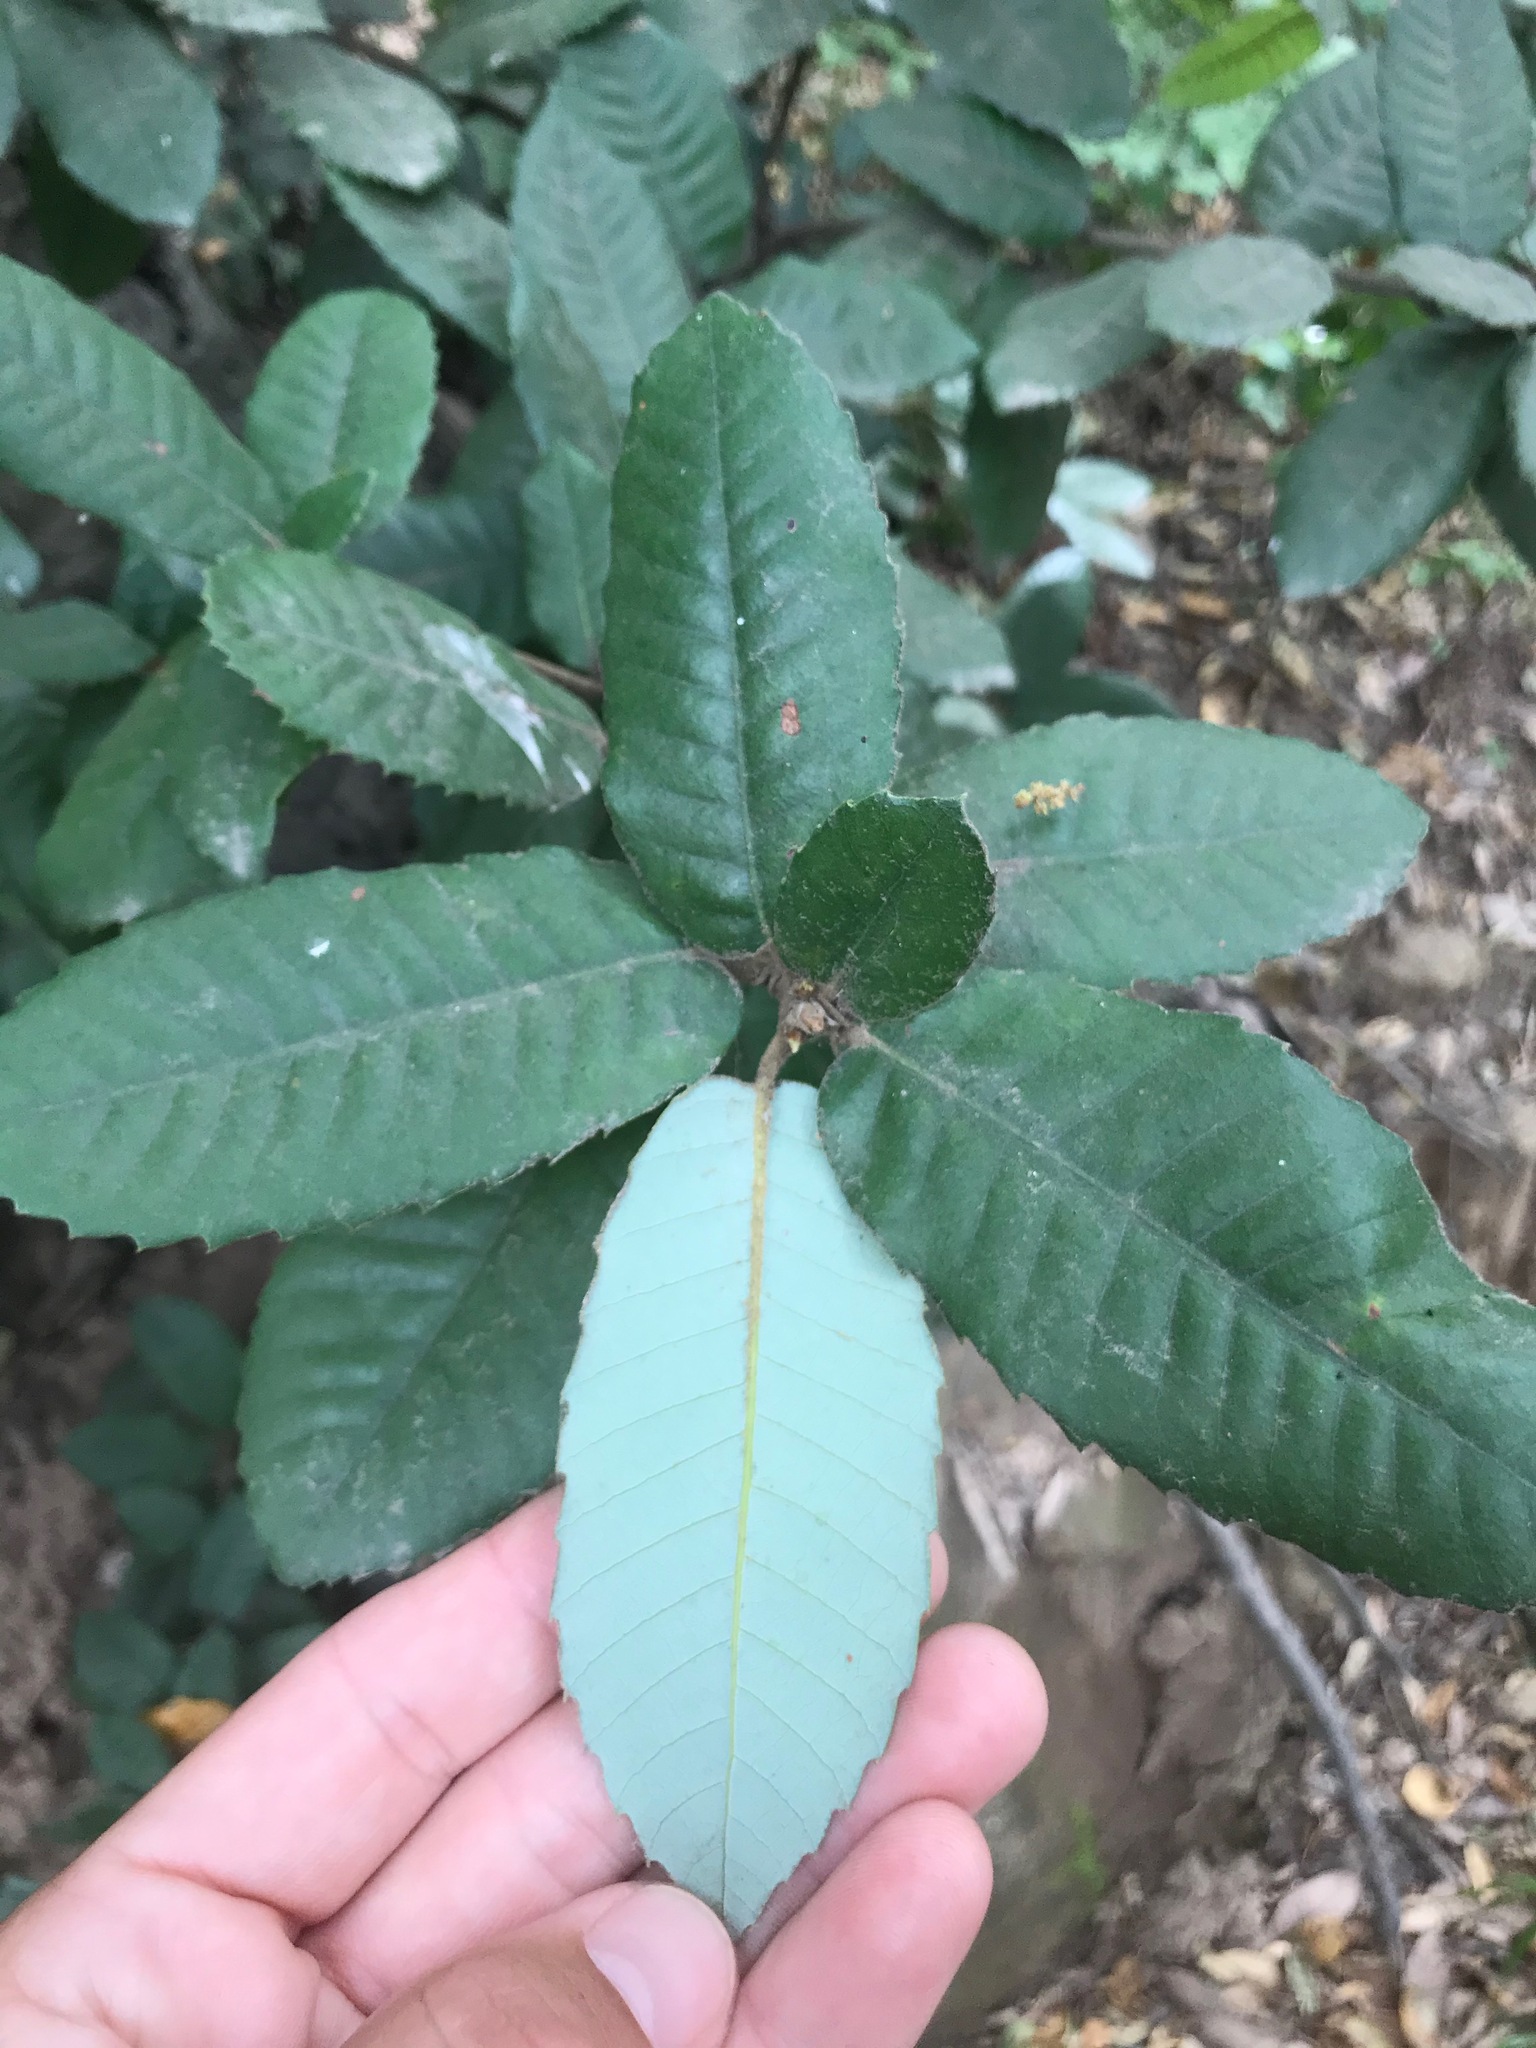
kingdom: Plantae
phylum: Tracheophyta
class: Magnoliopsida
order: Fagales
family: Fagaceae
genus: Notholithocarpus
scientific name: Notholithocarpus densiflorus
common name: Tan bark oak
